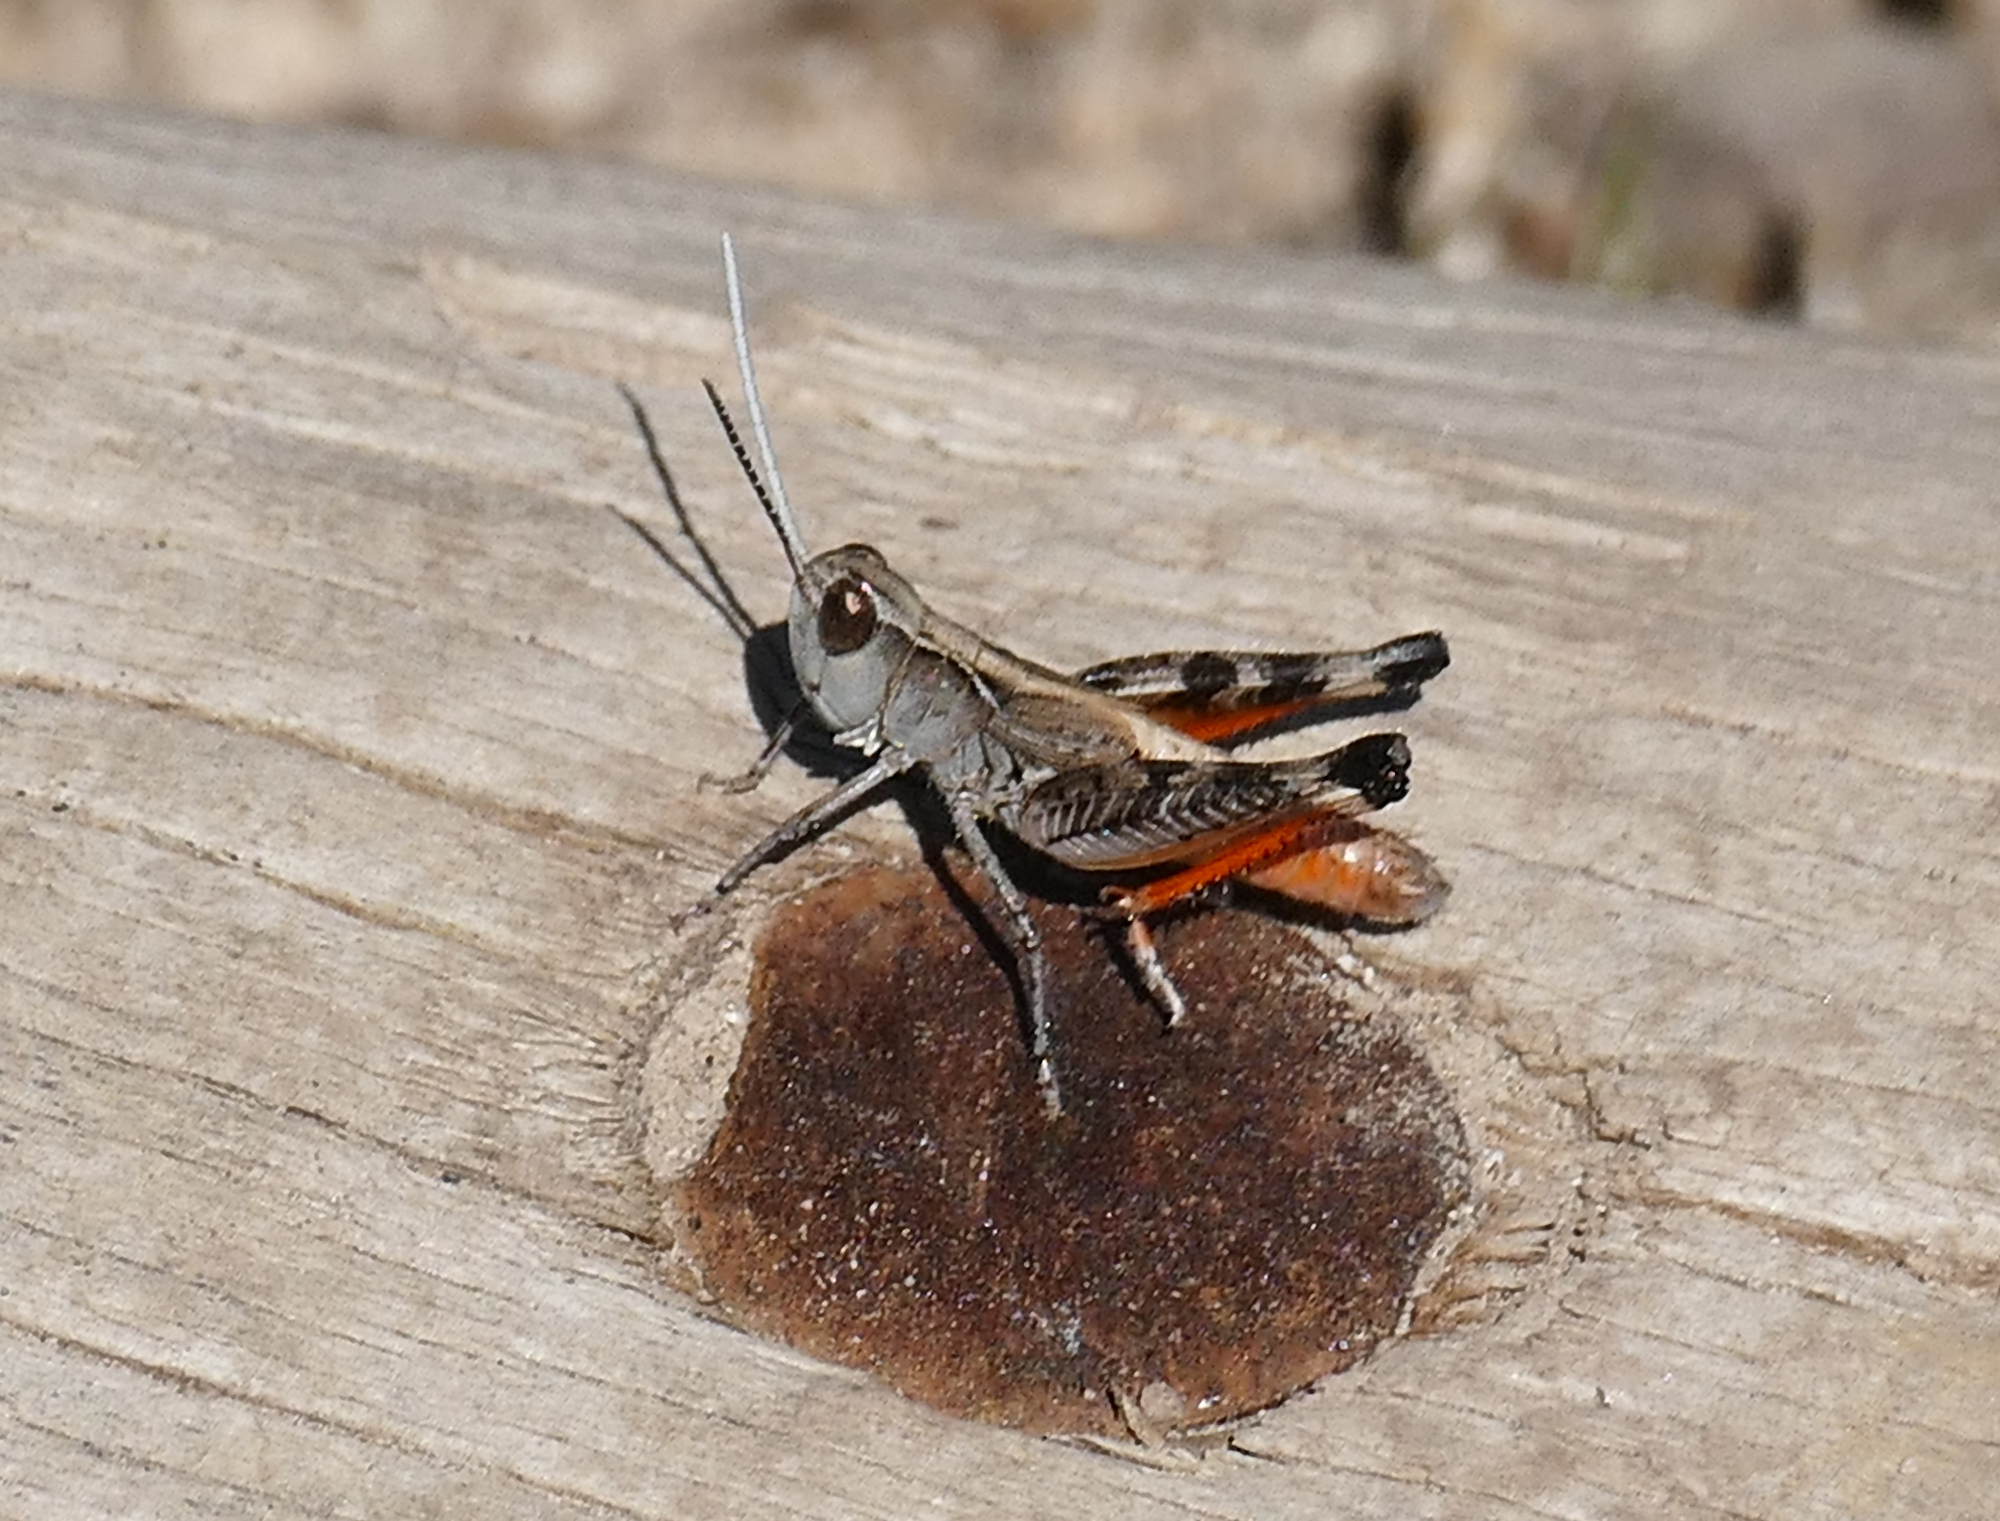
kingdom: Animalia
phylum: Arthropoda
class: Insecta
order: Orthoptera
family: Acrididae
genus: Ageneotettix
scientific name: Ageneotettix deorum
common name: White-whiskered grasshopper
